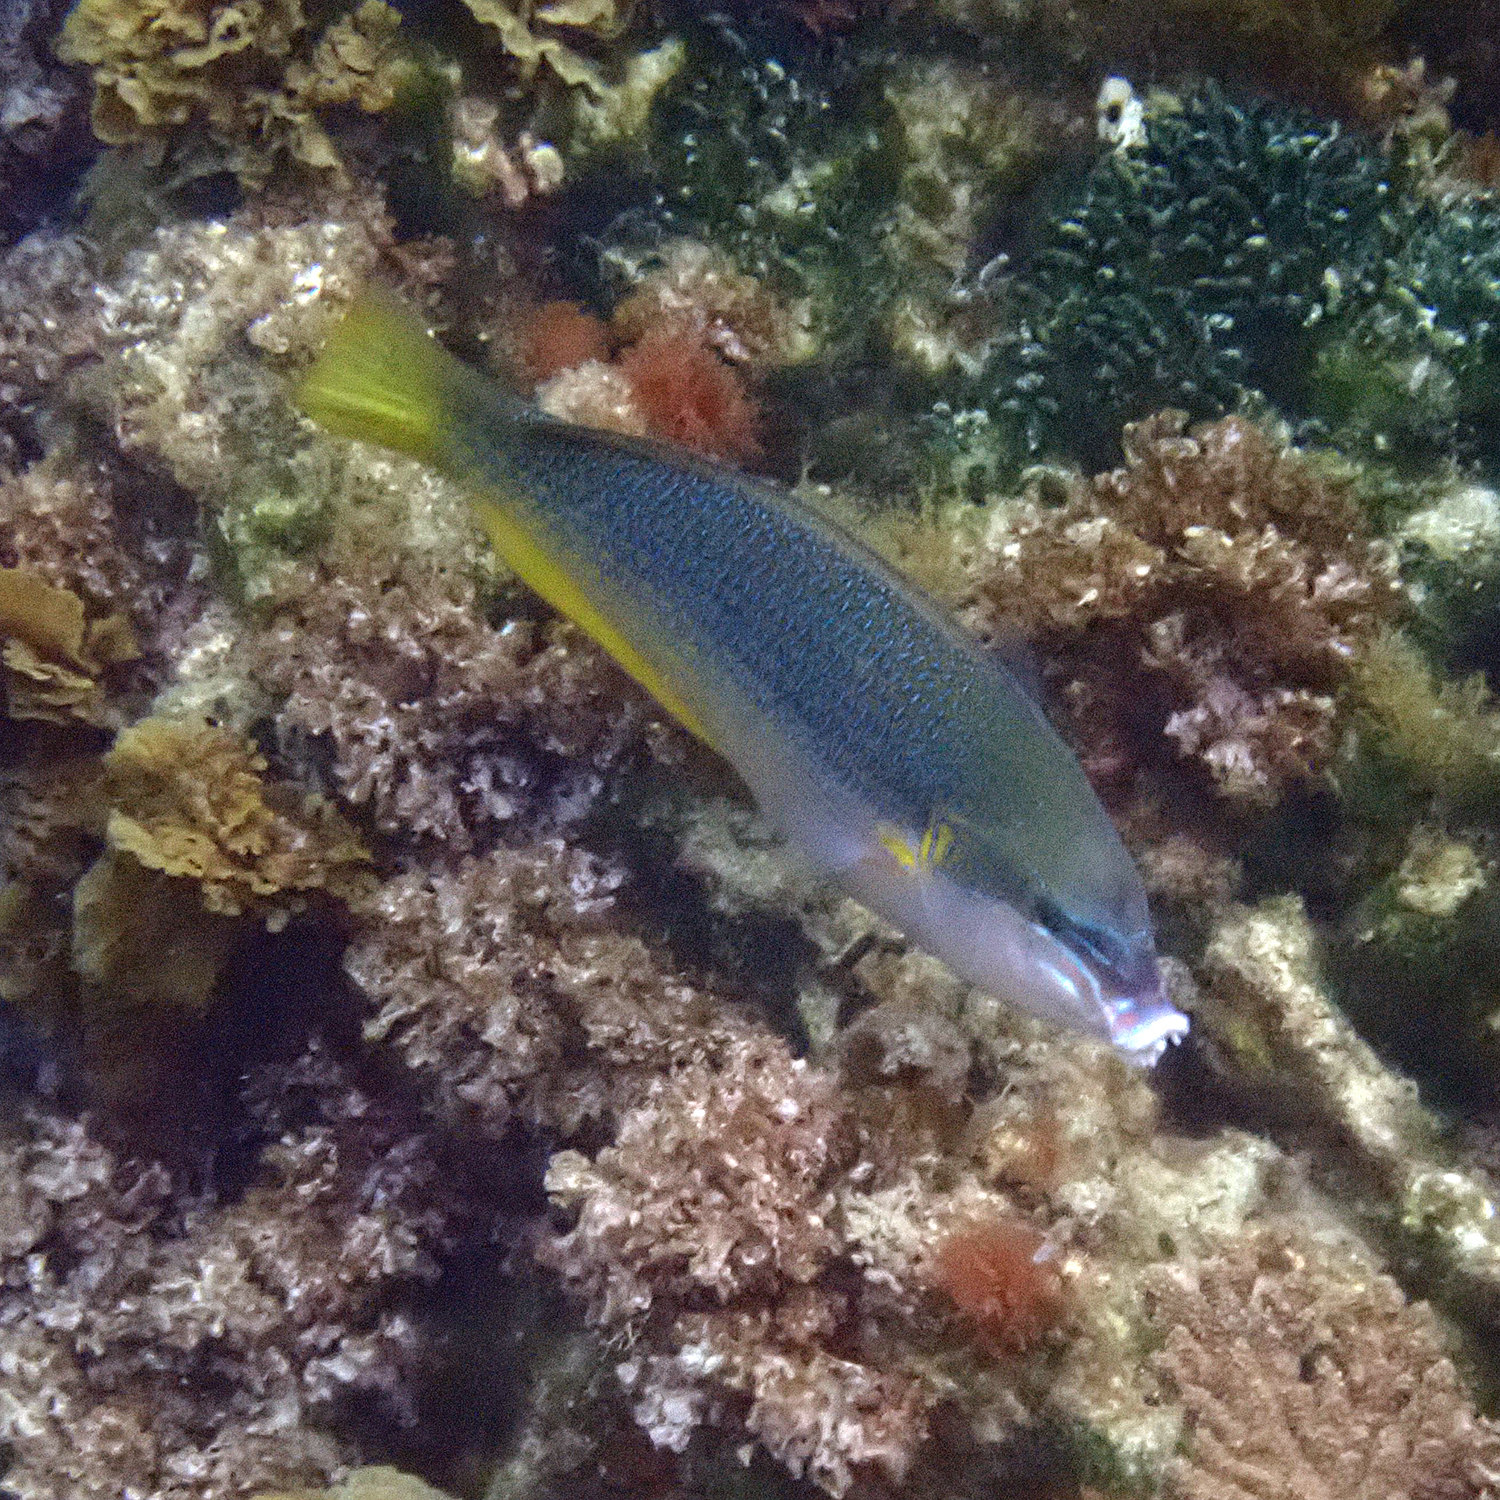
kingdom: Animalia
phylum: Chordata
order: Perciformes
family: Labridae
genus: Anampses
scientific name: Anampses elegans
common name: Elegant wrasse
